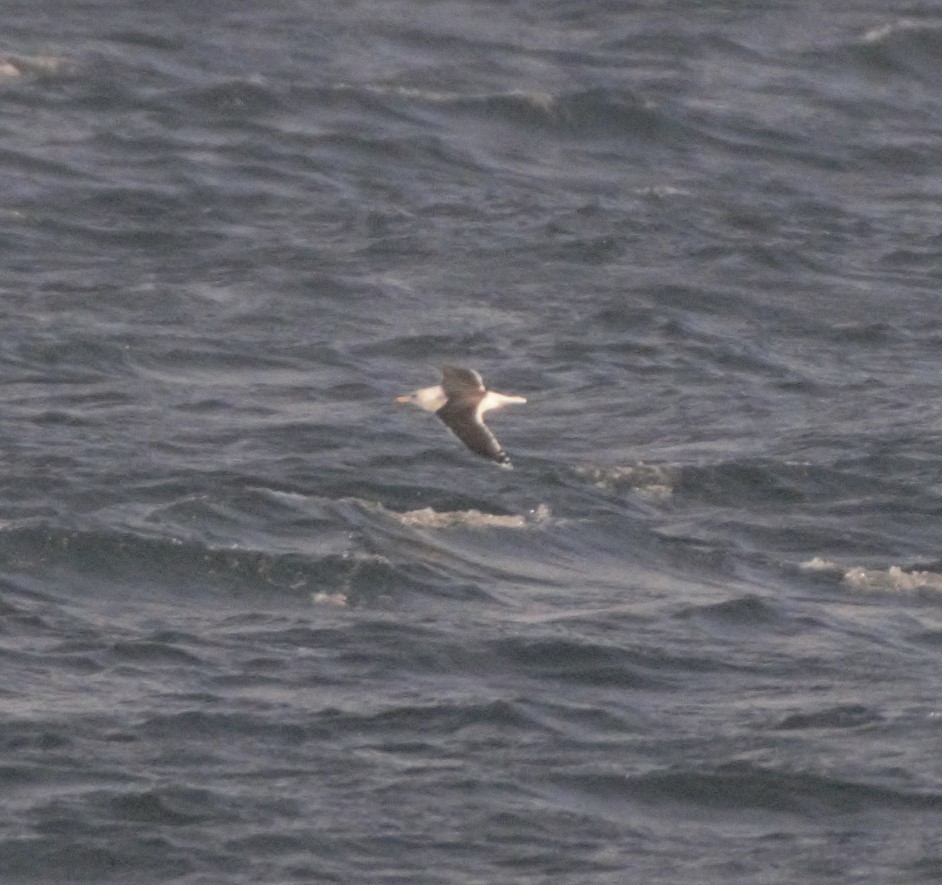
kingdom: Animalia
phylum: Chordata
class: Aves
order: Charadriiformes
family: Laridae
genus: Larus
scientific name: Larus marinus
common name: Great black-backed gull
